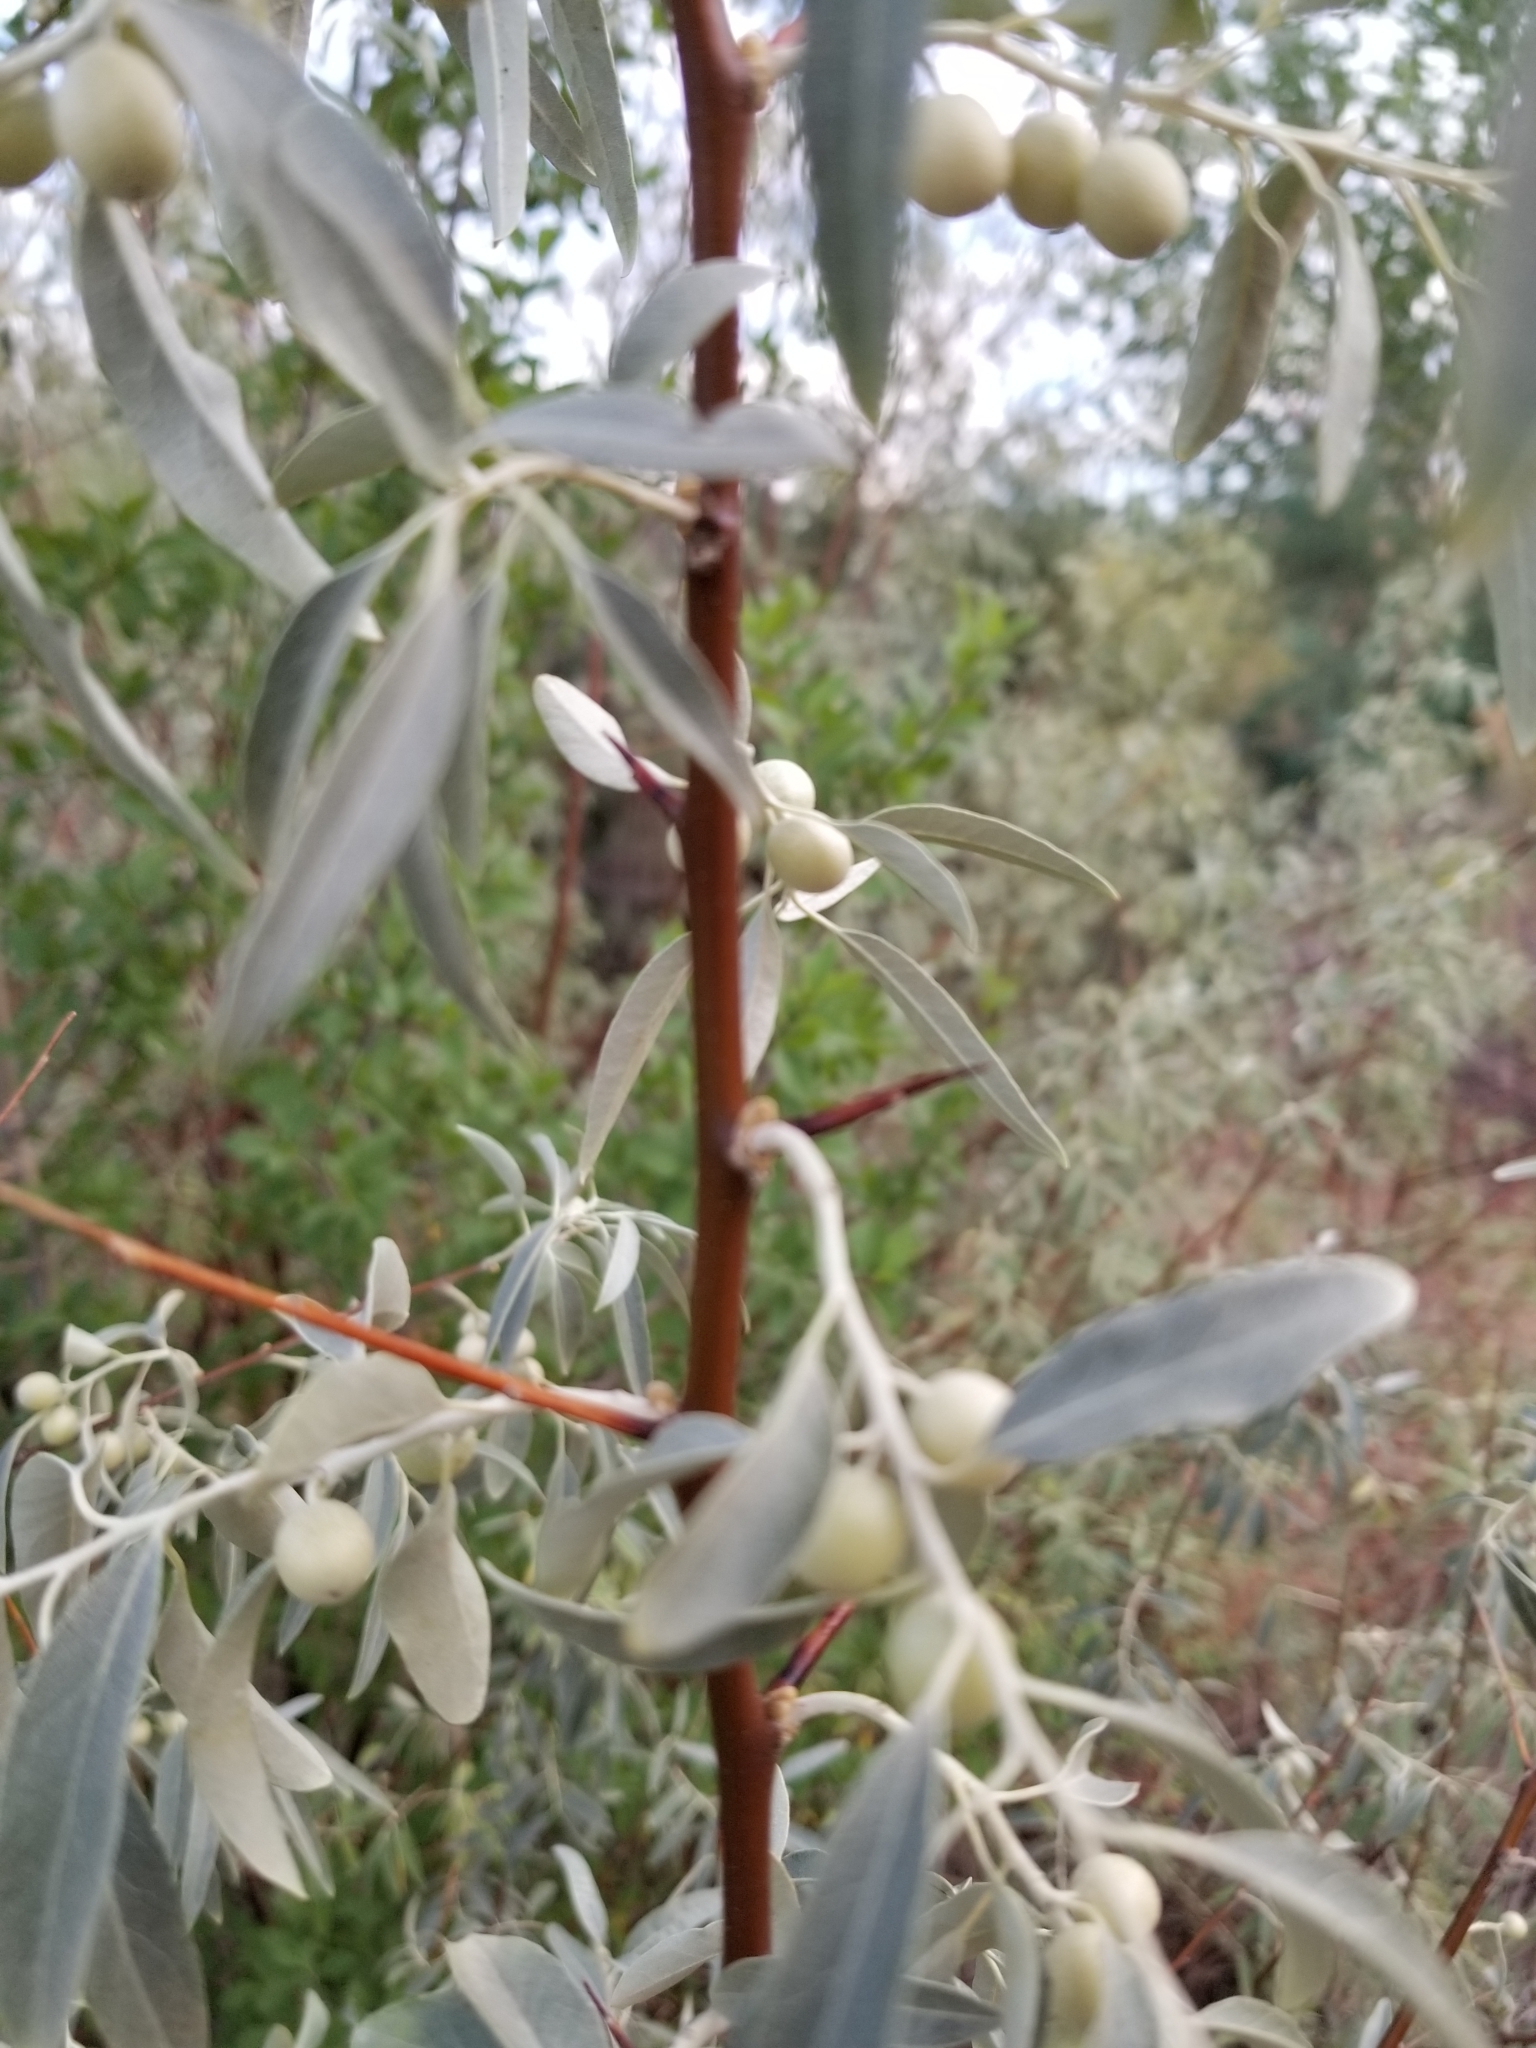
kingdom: Plantae
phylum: Tracheophyta
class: Magnoliopsida
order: Rosales
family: Elaeagnaceae
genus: Elaeagnus
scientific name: Elaeagnus angustifolia
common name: Russian olive
